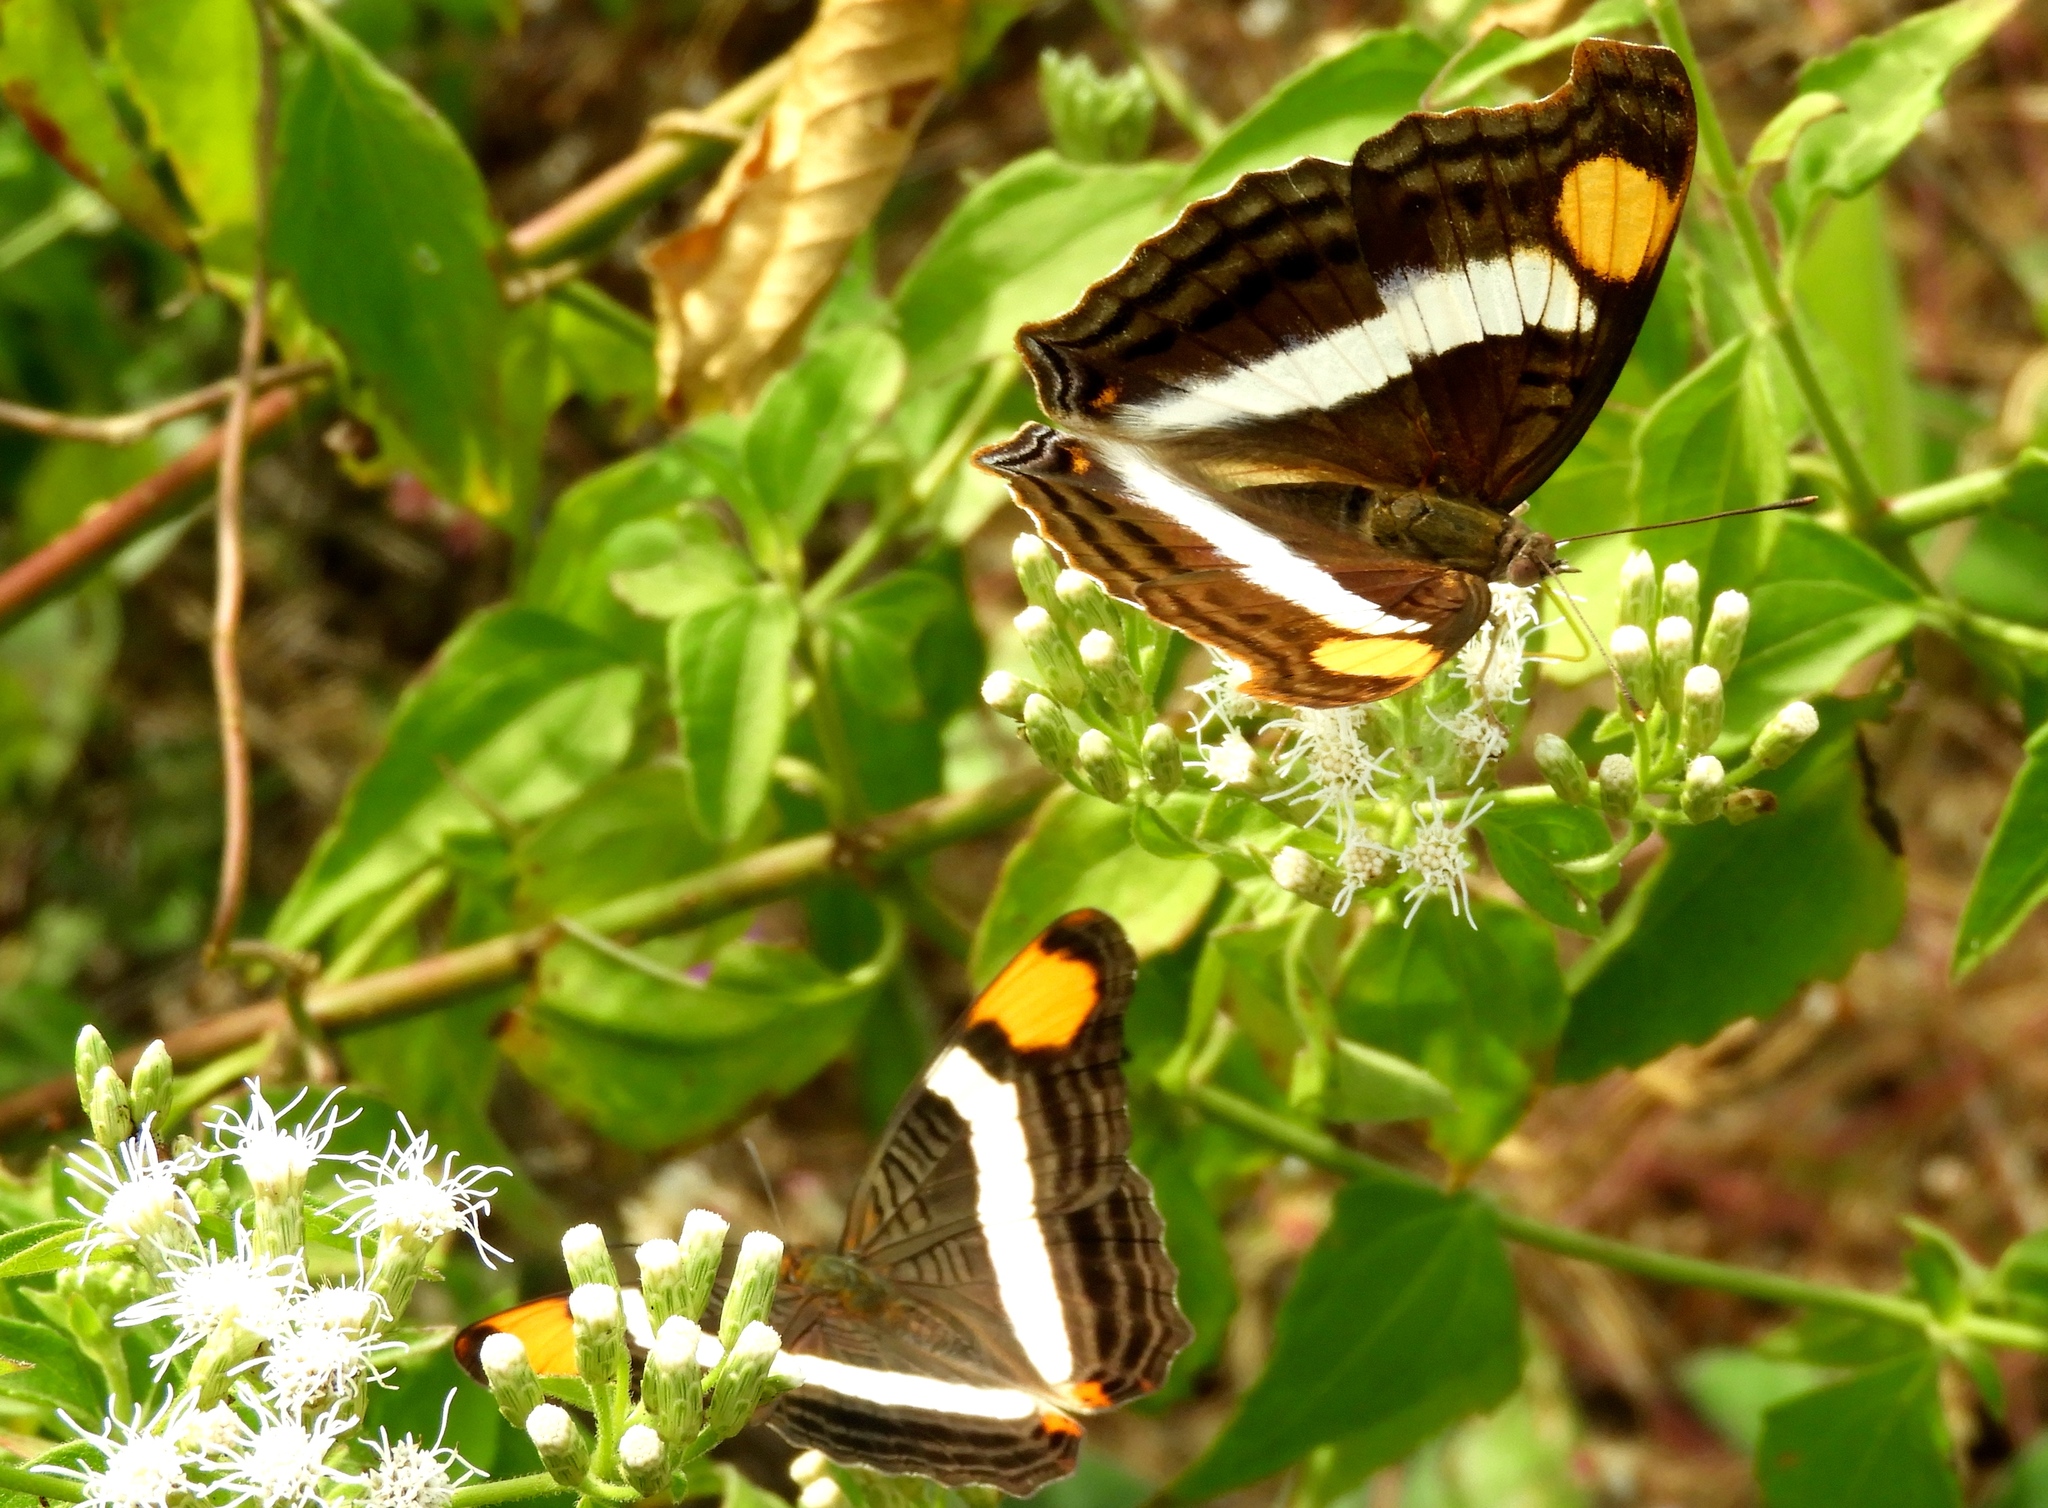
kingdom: Animalia
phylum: Arthropoda
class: Insecta
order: Lepidoptera
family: Nymphalidae
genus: Doxocopa
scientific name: Doxocopa laure
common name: Silver emperor
